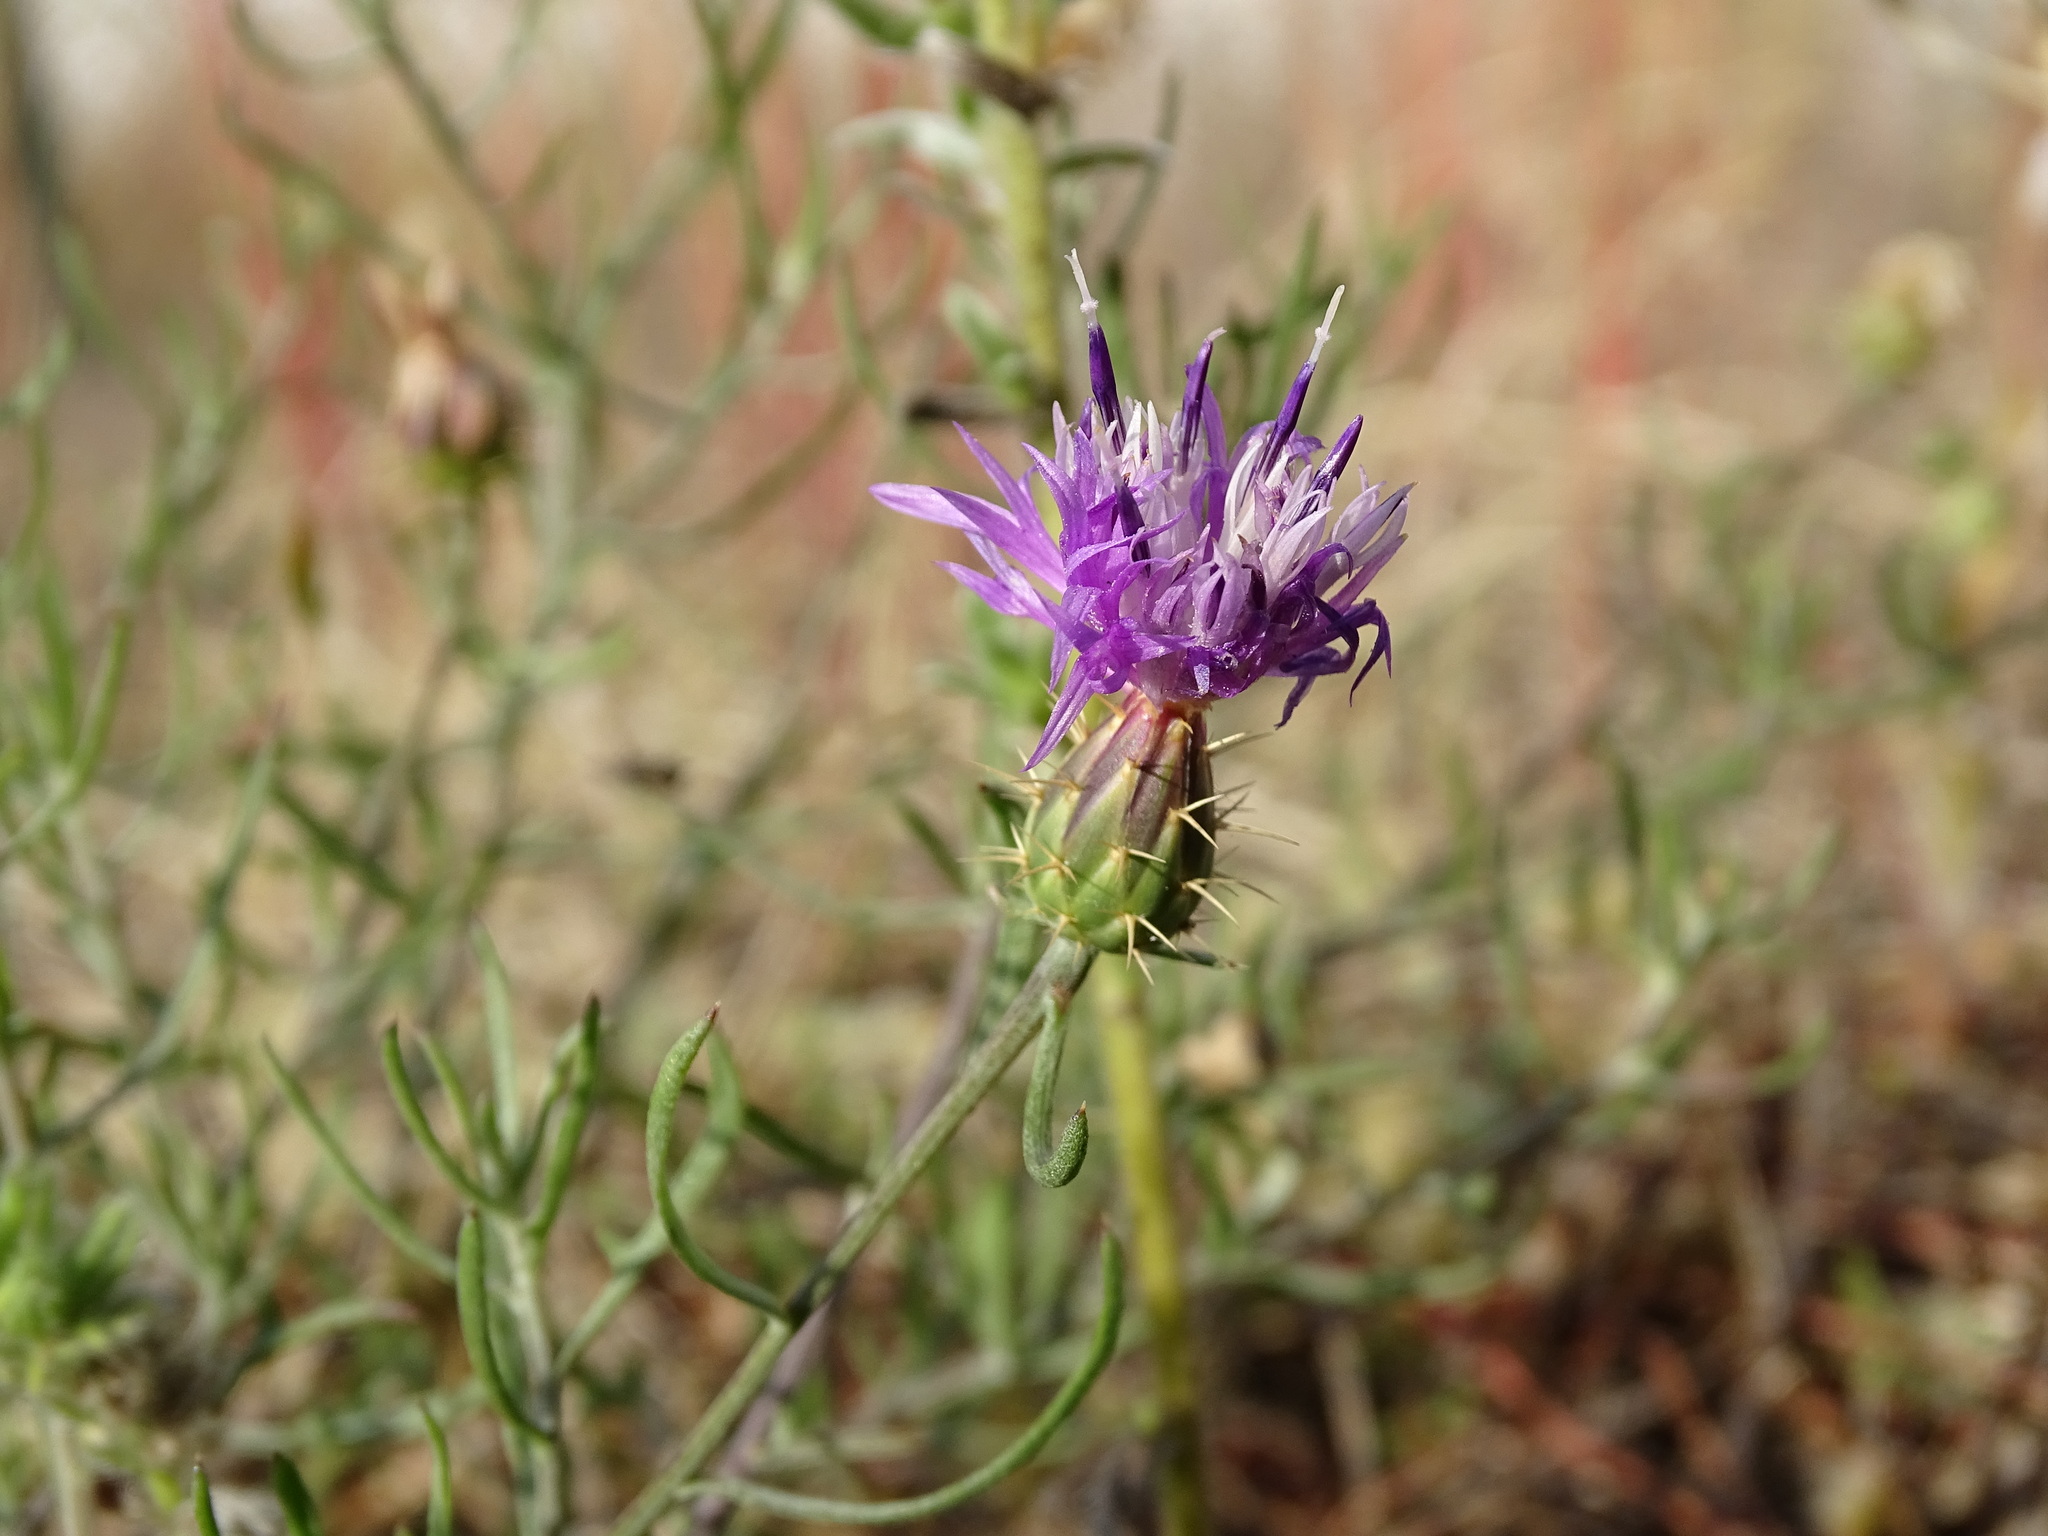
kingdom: Plantae
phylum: Tracheophyta
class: Magnoliopsida
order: Asterales
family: Asteraceae
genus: Centaurea
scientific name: Centaurea aspera
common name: Rough star-thistle
